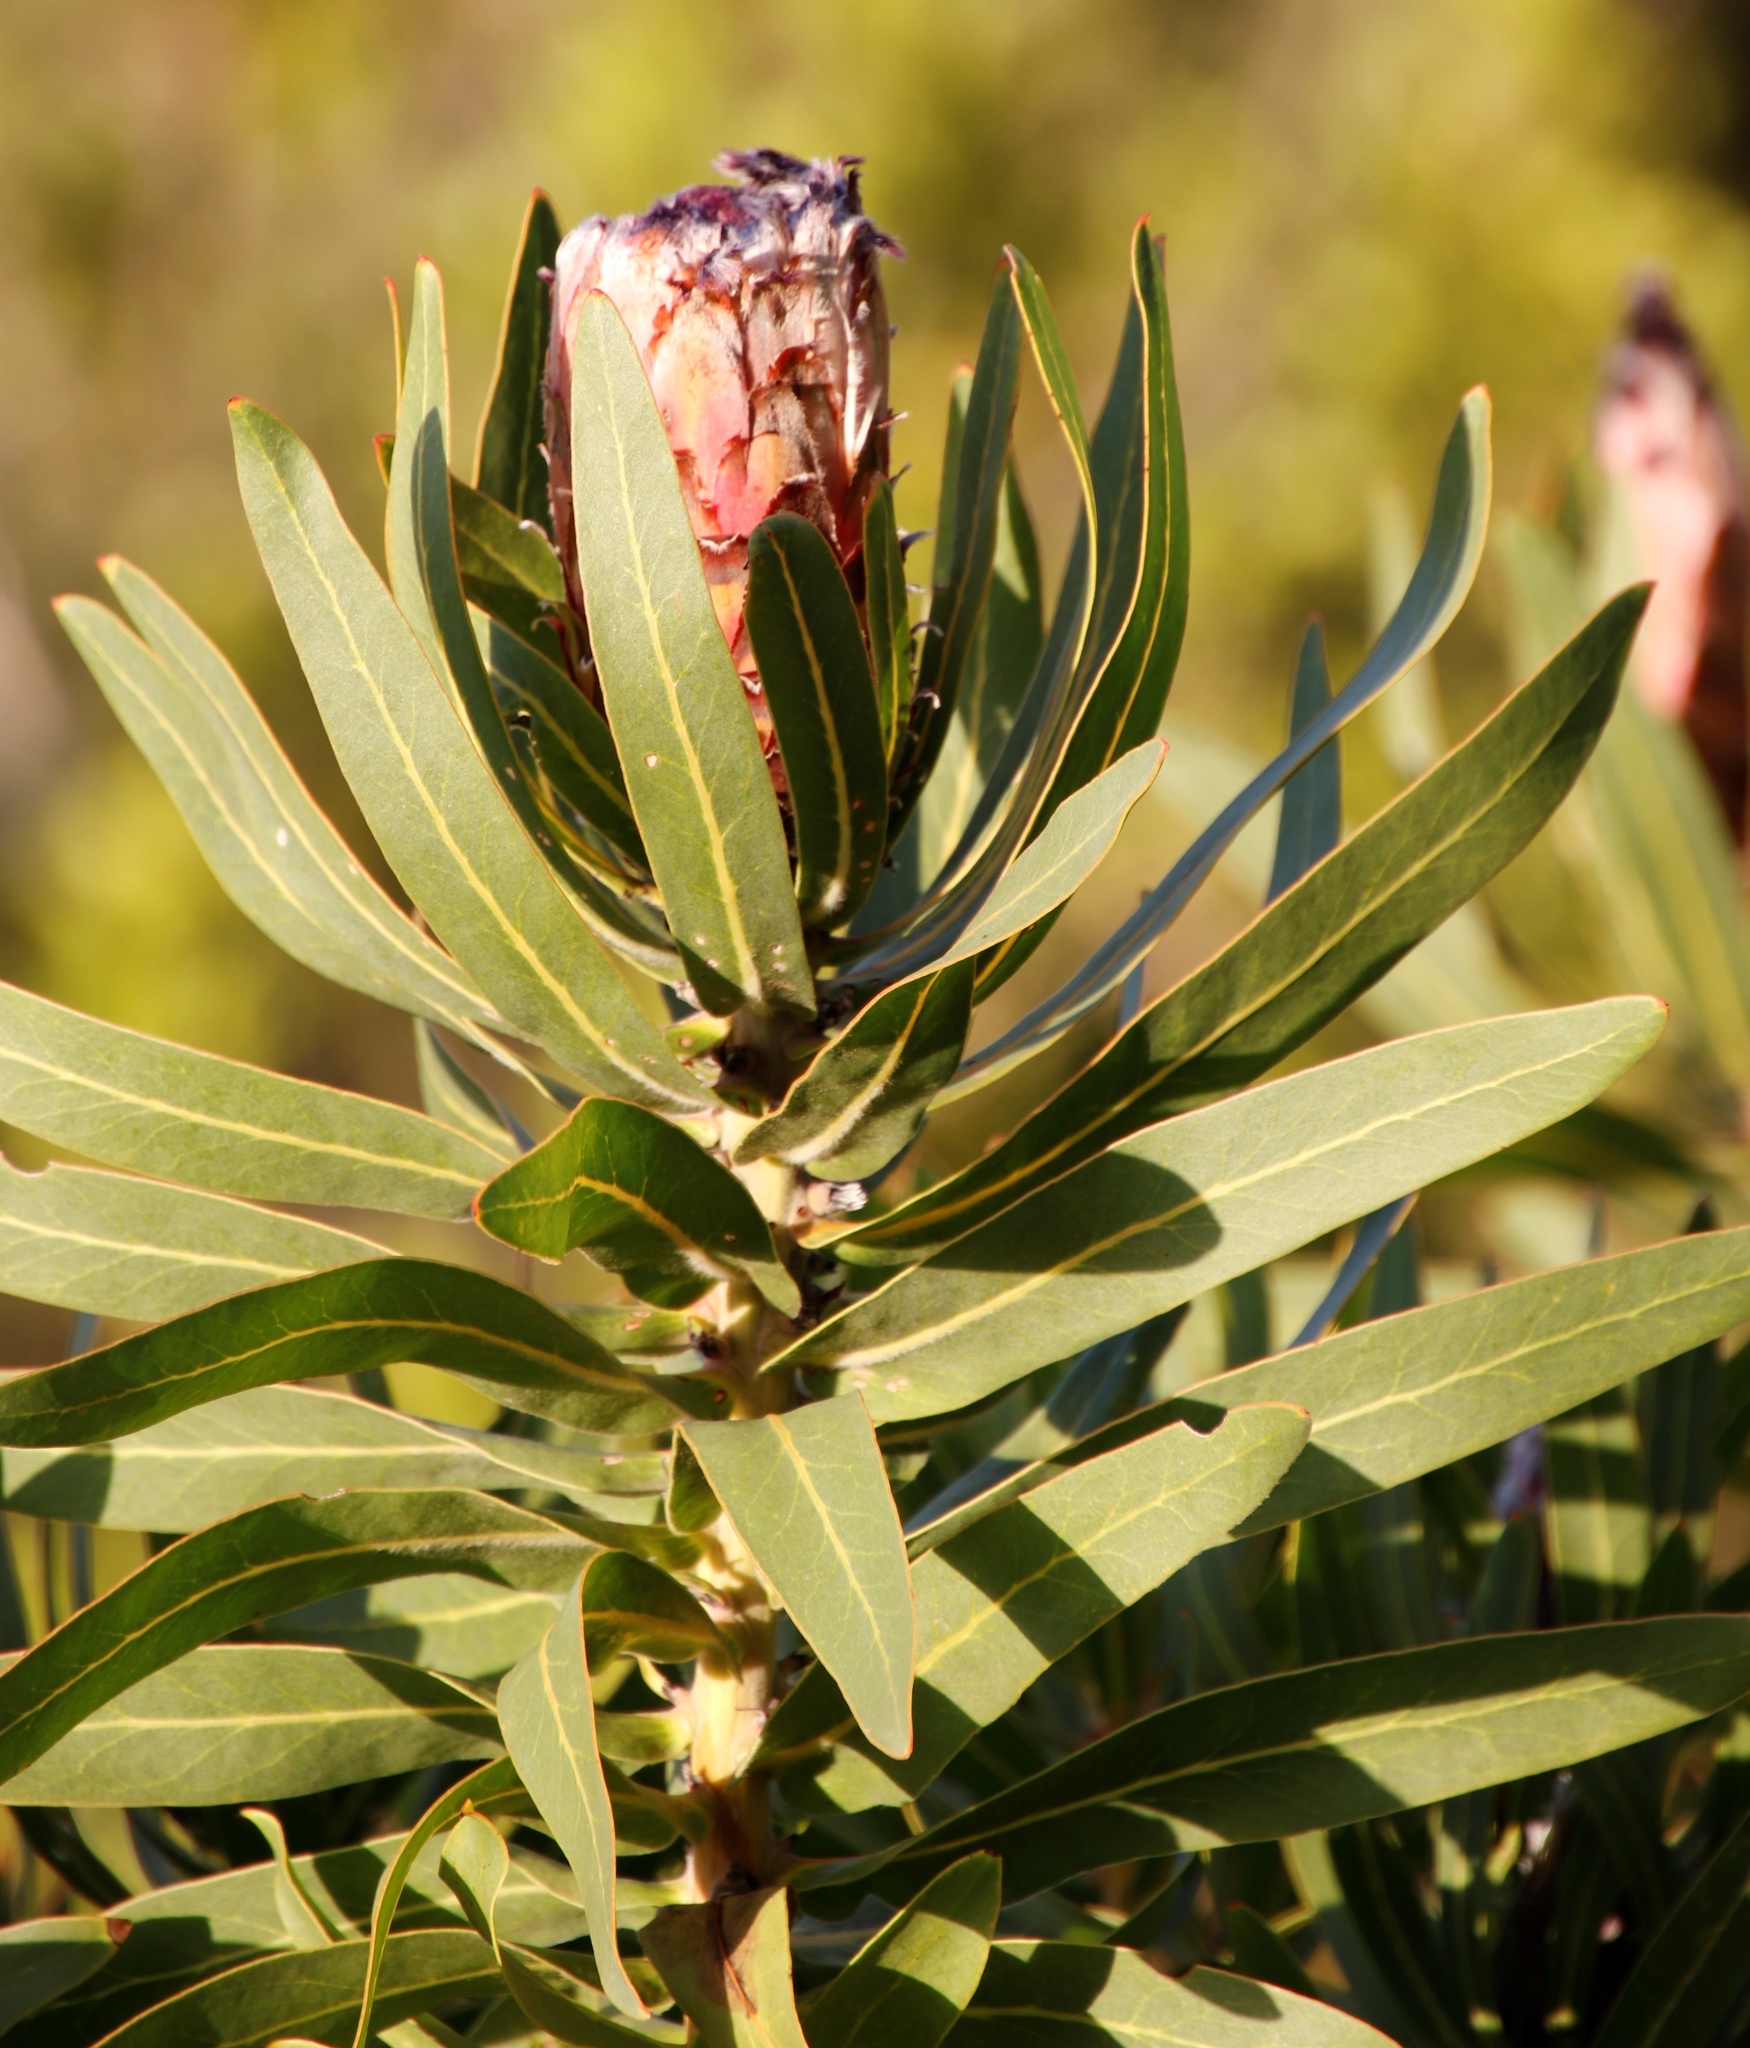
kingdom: Plantae
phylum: Tracheophyta
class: Magnoliopsida
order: Proteales
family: Proteaceae
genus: Protea
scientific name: Protea neriifolia
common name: Blue sugarbush
